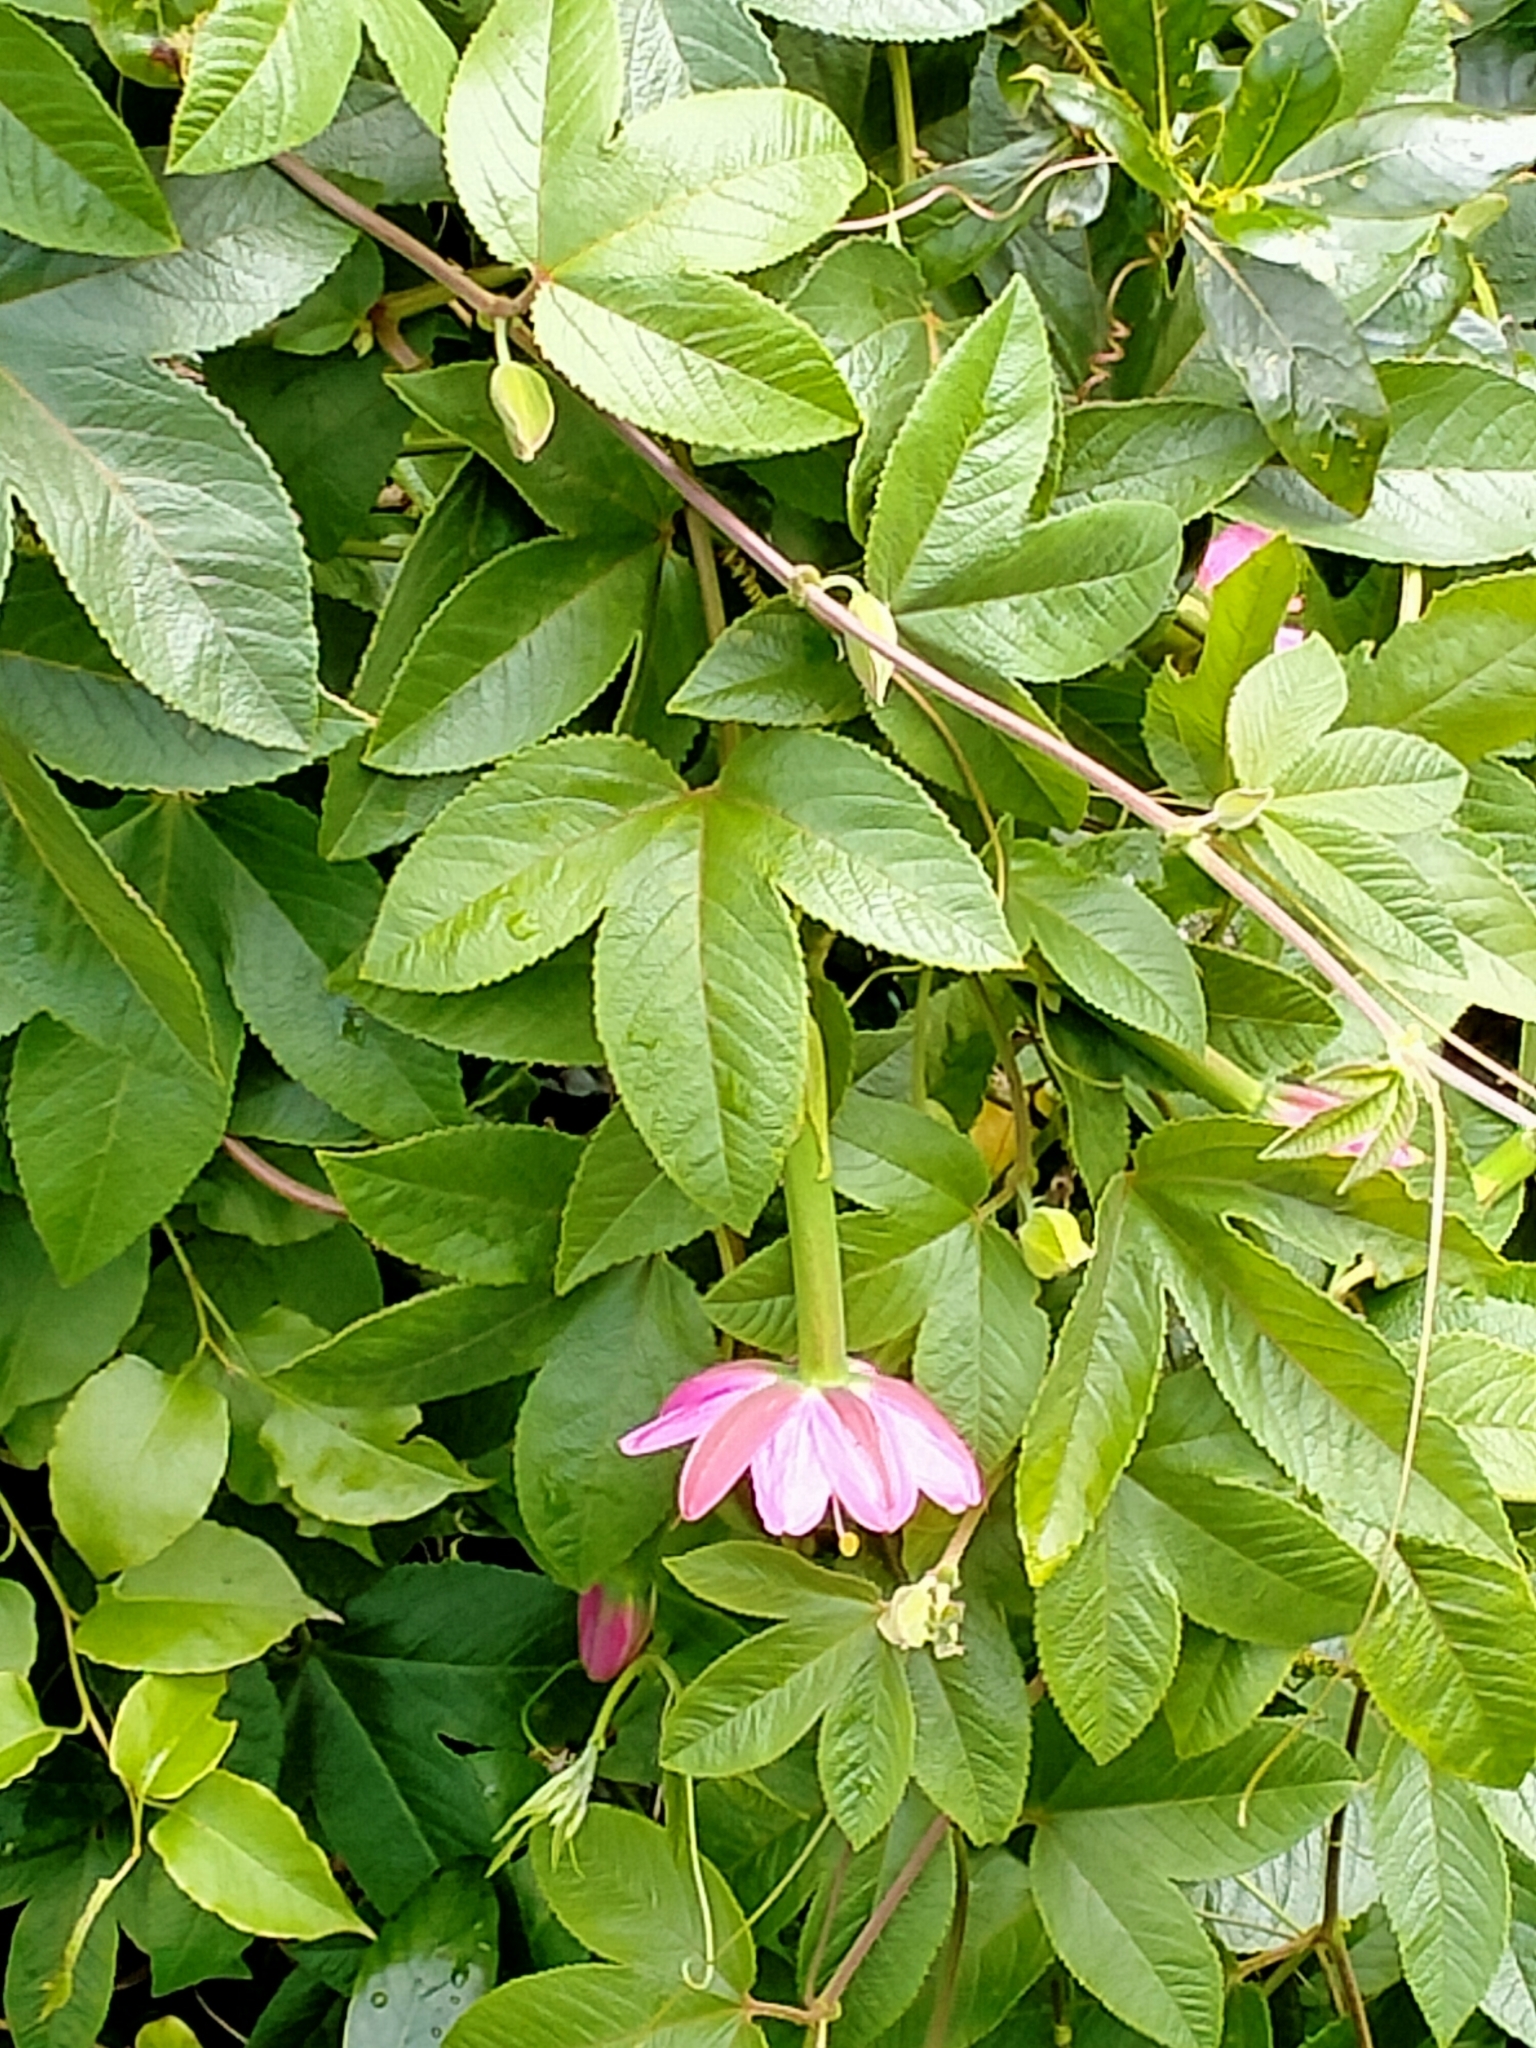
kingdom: Plantae
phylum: Tracheophyta
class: Magnoliopsida
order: Malpighiales
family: Passifloraceae
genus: Passiflora
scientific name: Passiflora tripartita
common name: Banana poka
